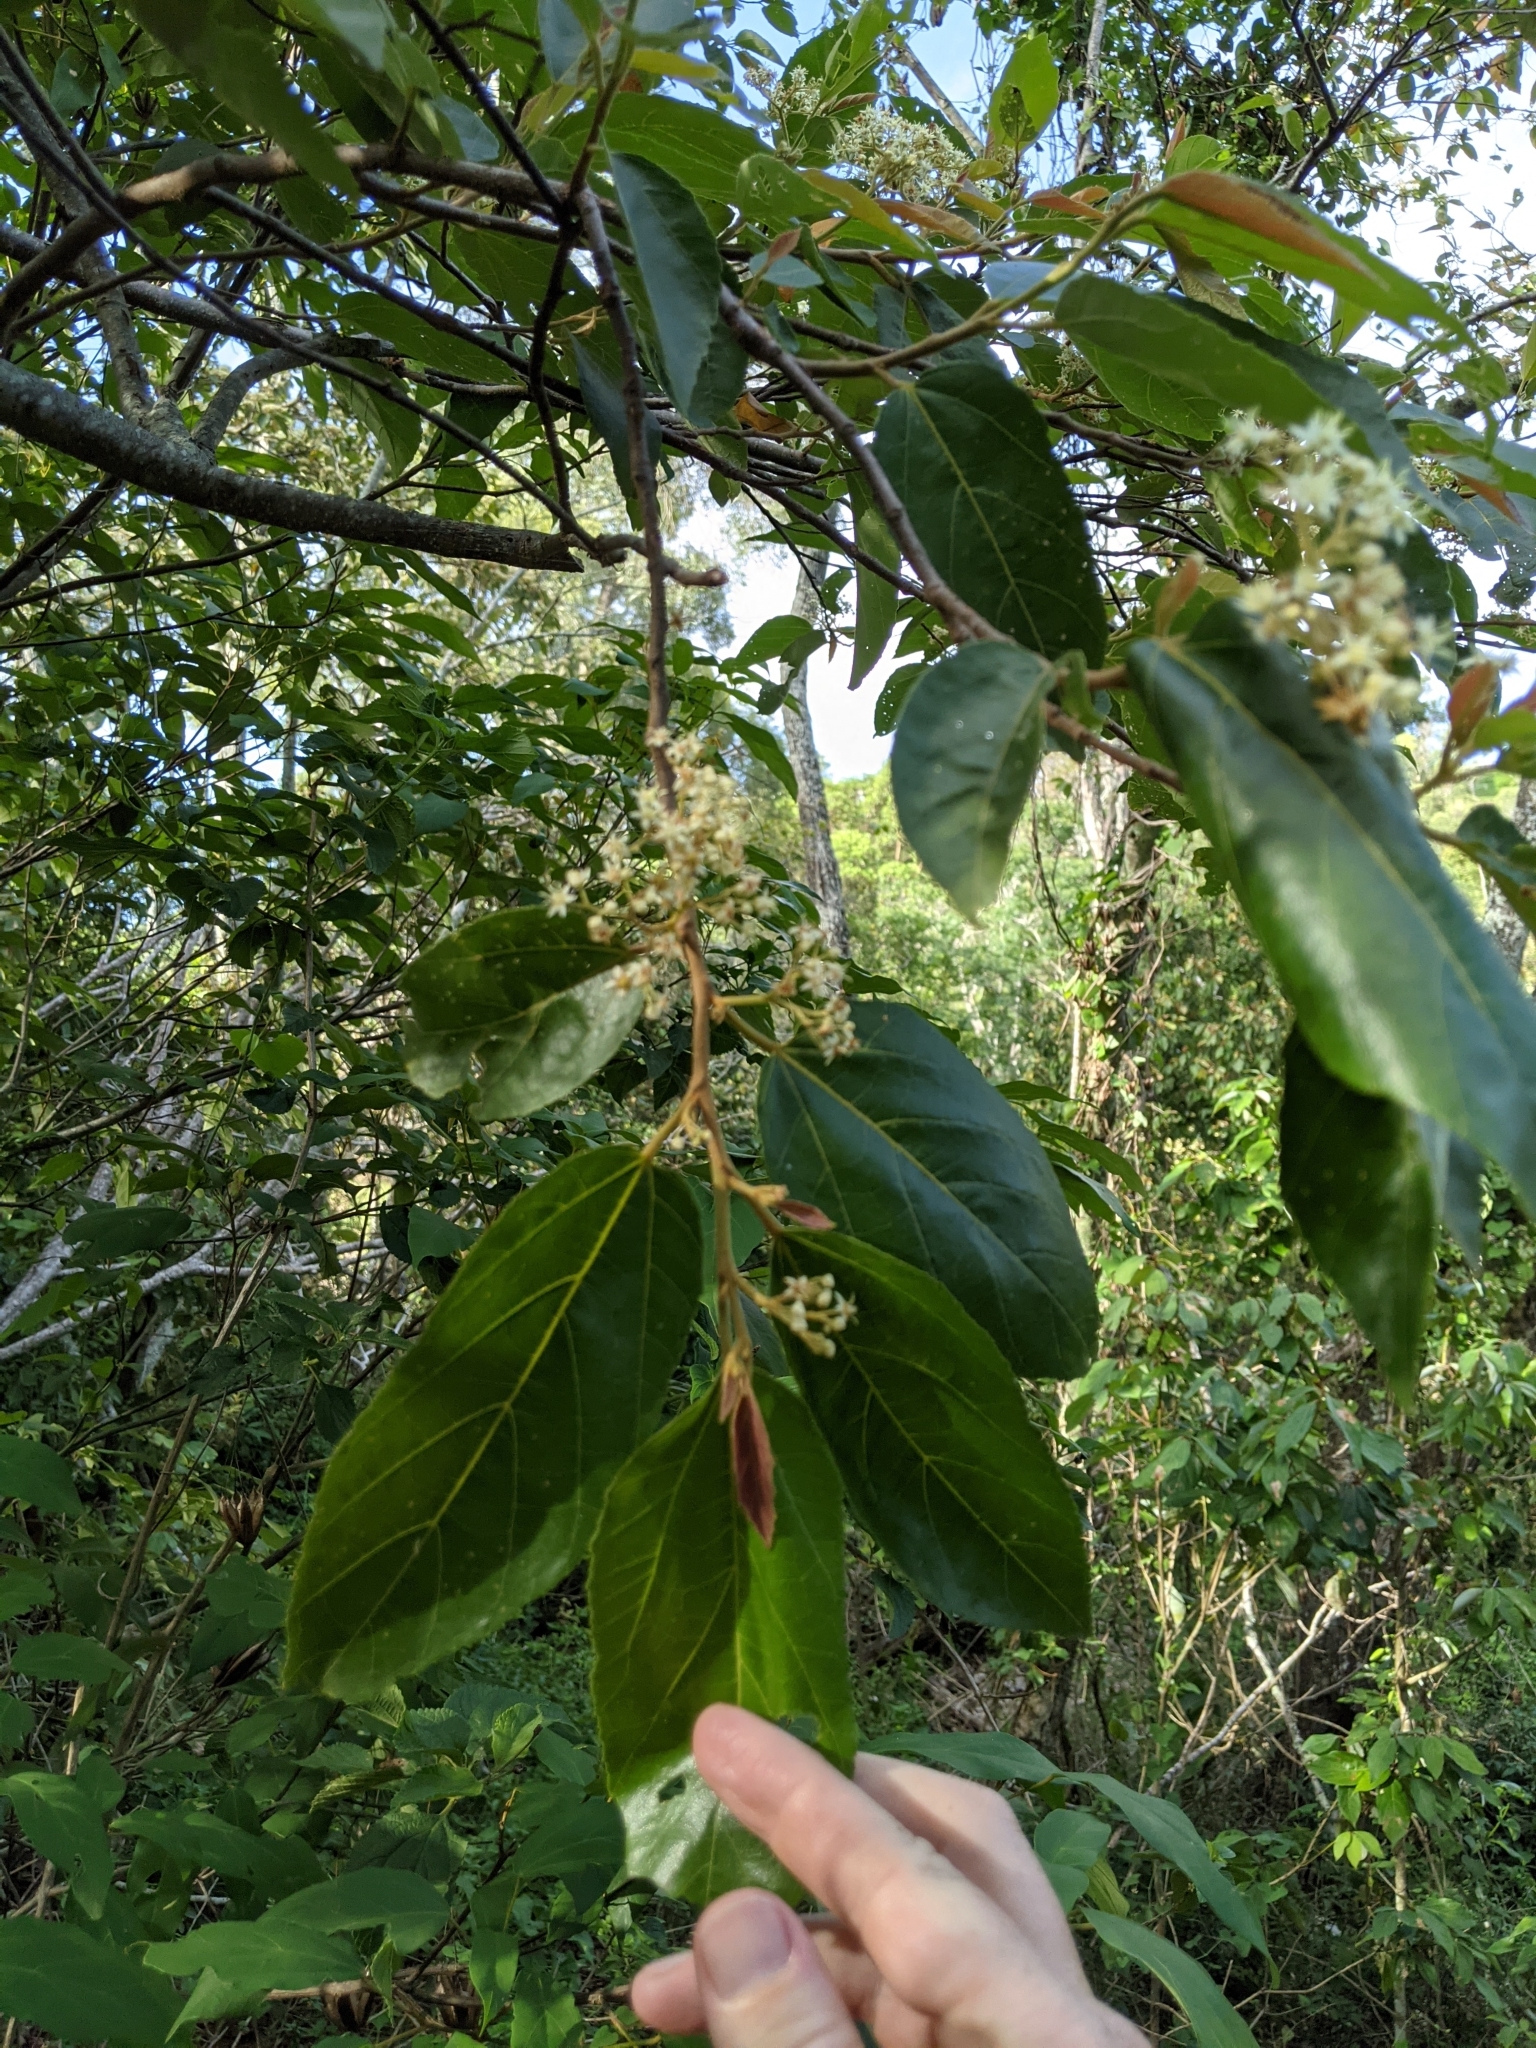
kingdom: Plantae
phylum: Tracheophyta
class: Magnoliopsida
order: Malvales
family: Malvaceae
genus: Commersonia
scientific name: Commersonia bartramia
